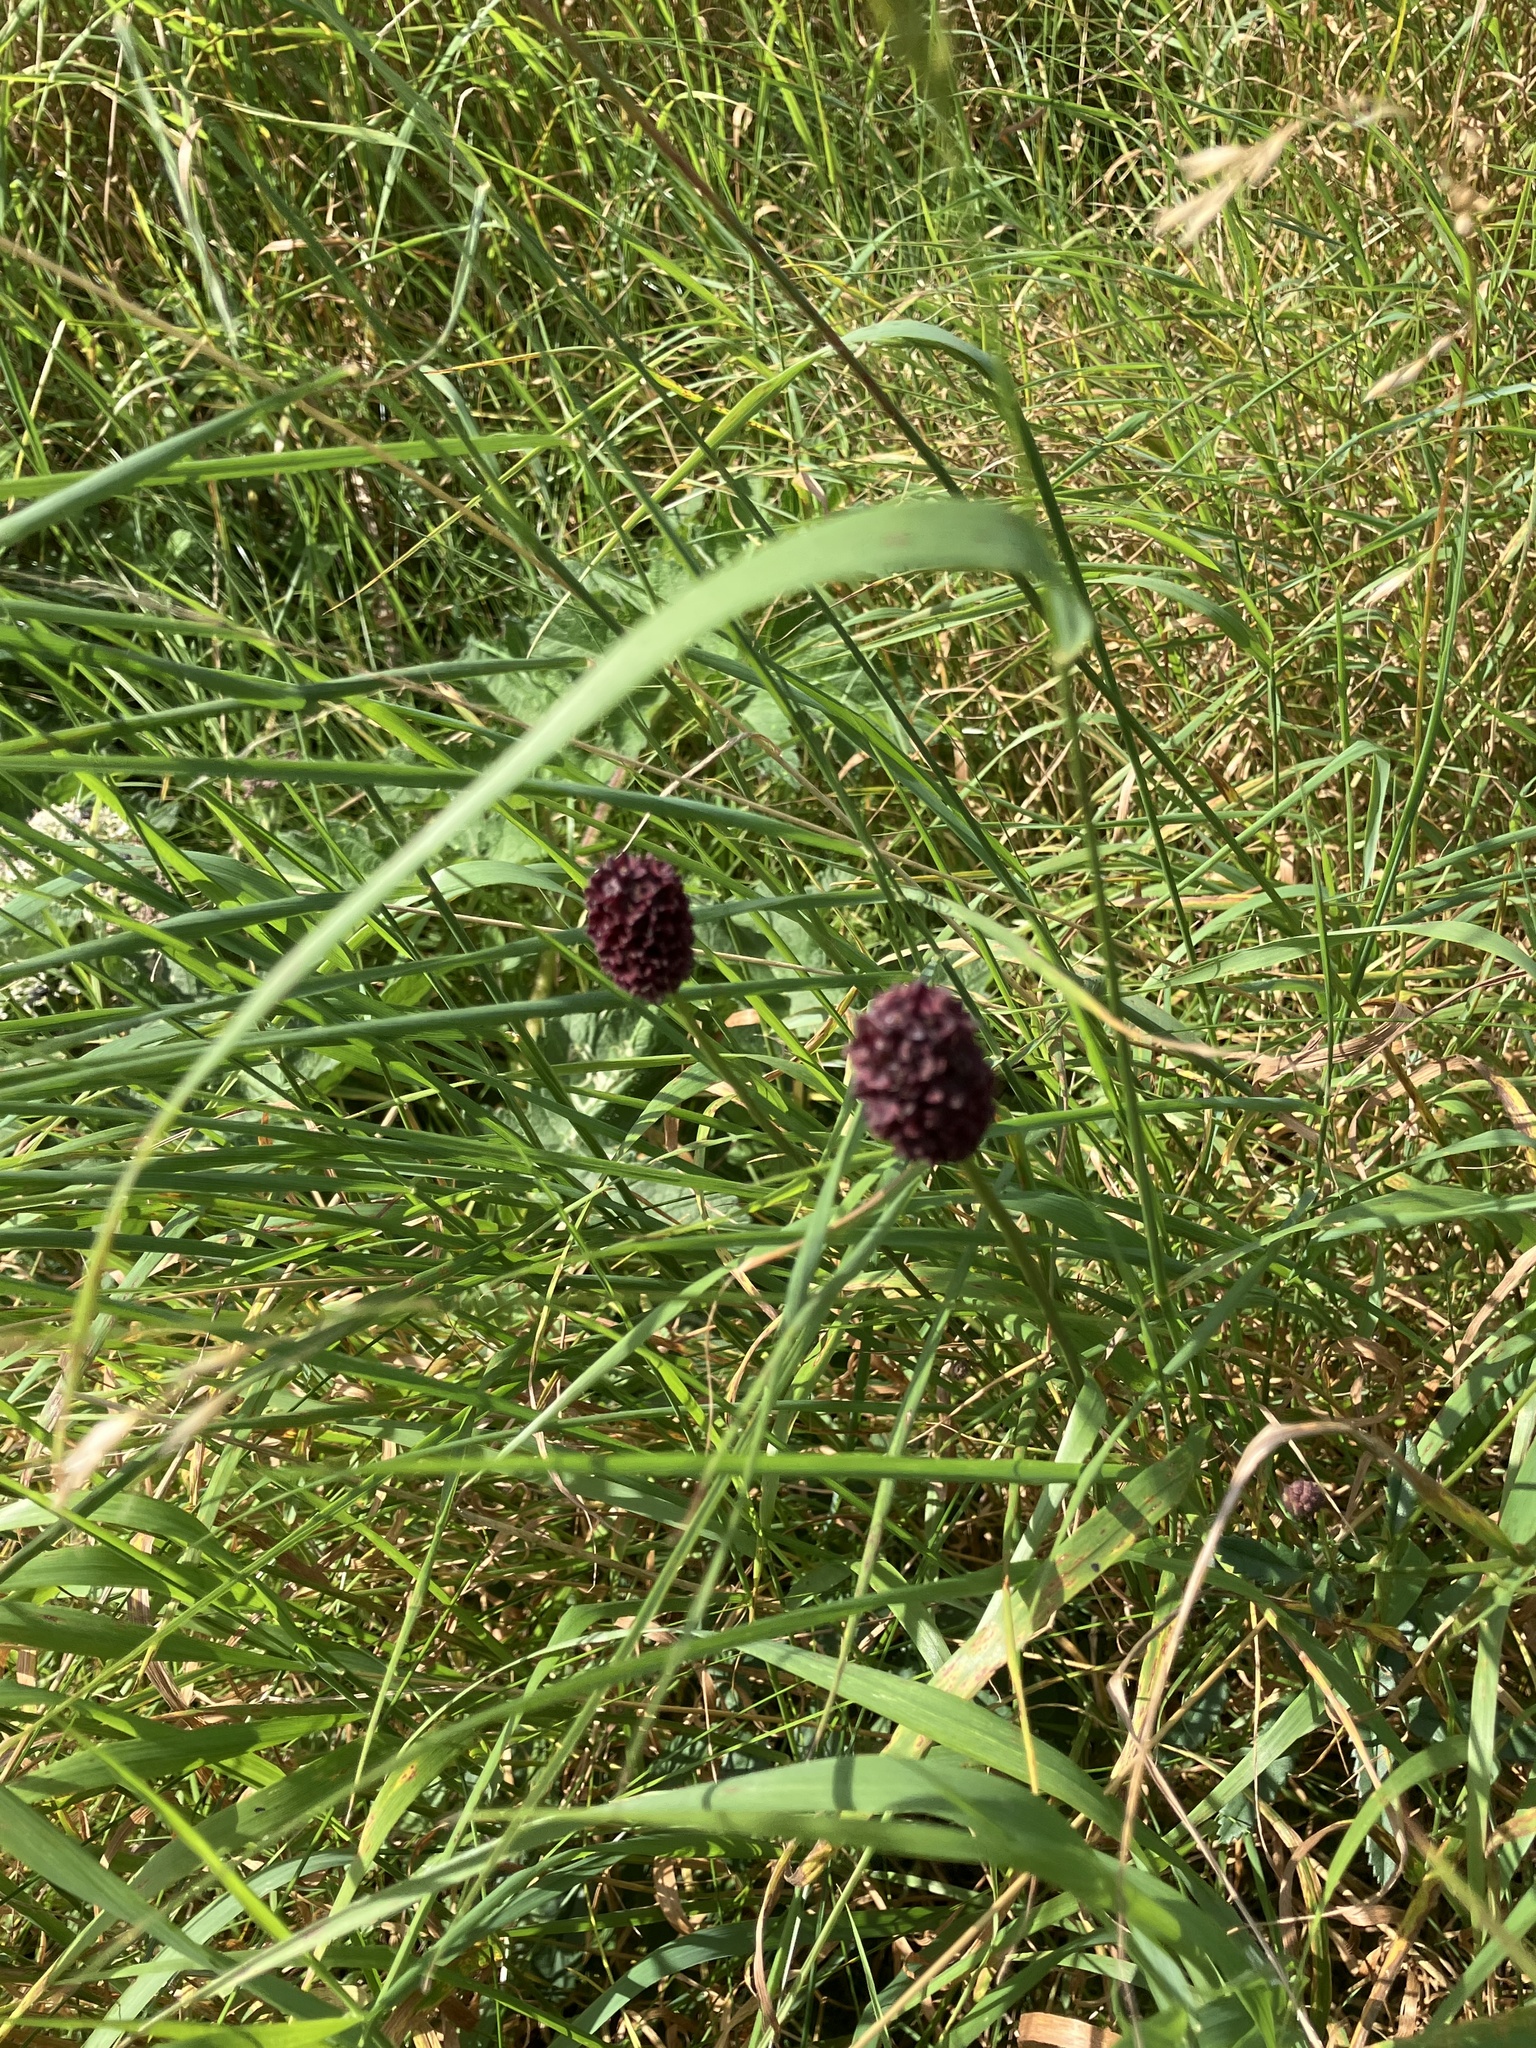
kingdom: Plantae
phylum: Tracheophyta
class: Magnoliopsida
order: Rosales
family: Rosaceae
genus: Sanguisorba
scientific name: Sanguisorba officinalis
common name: Great burnet
